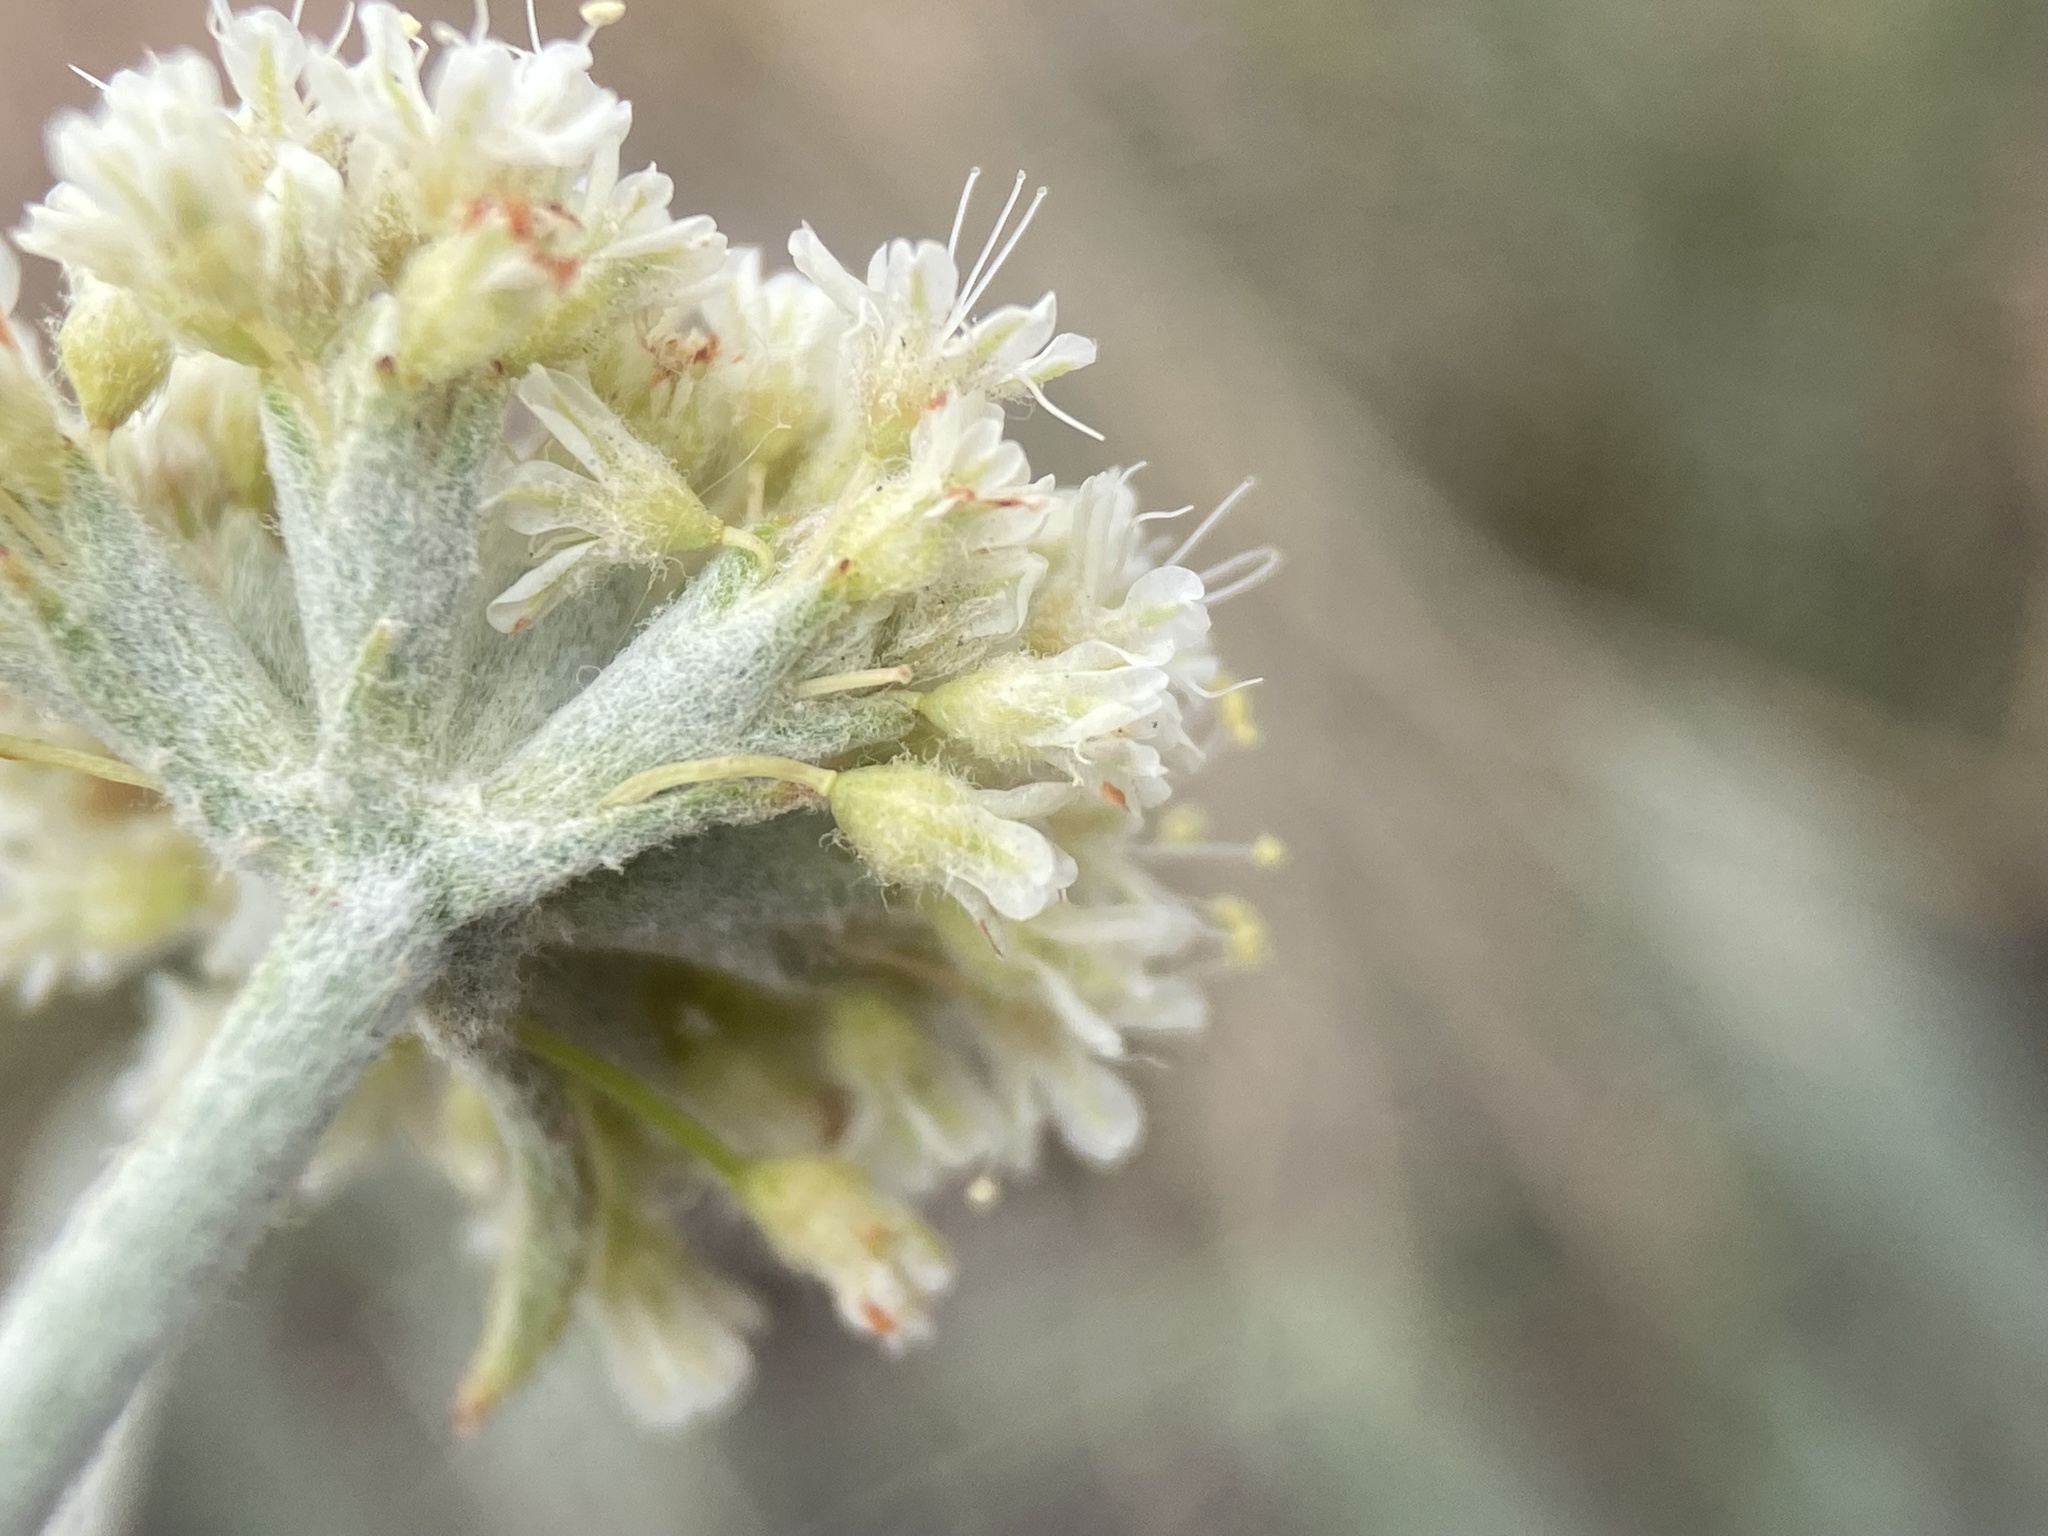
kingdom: Plantae
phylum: Tracheophyta
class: Magnoliopsida
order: Caryophyllales
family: Polygonaceae
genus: Eriogonum
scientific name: Eriogonum pauciflorum
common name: Few-flower wild buckwheat
